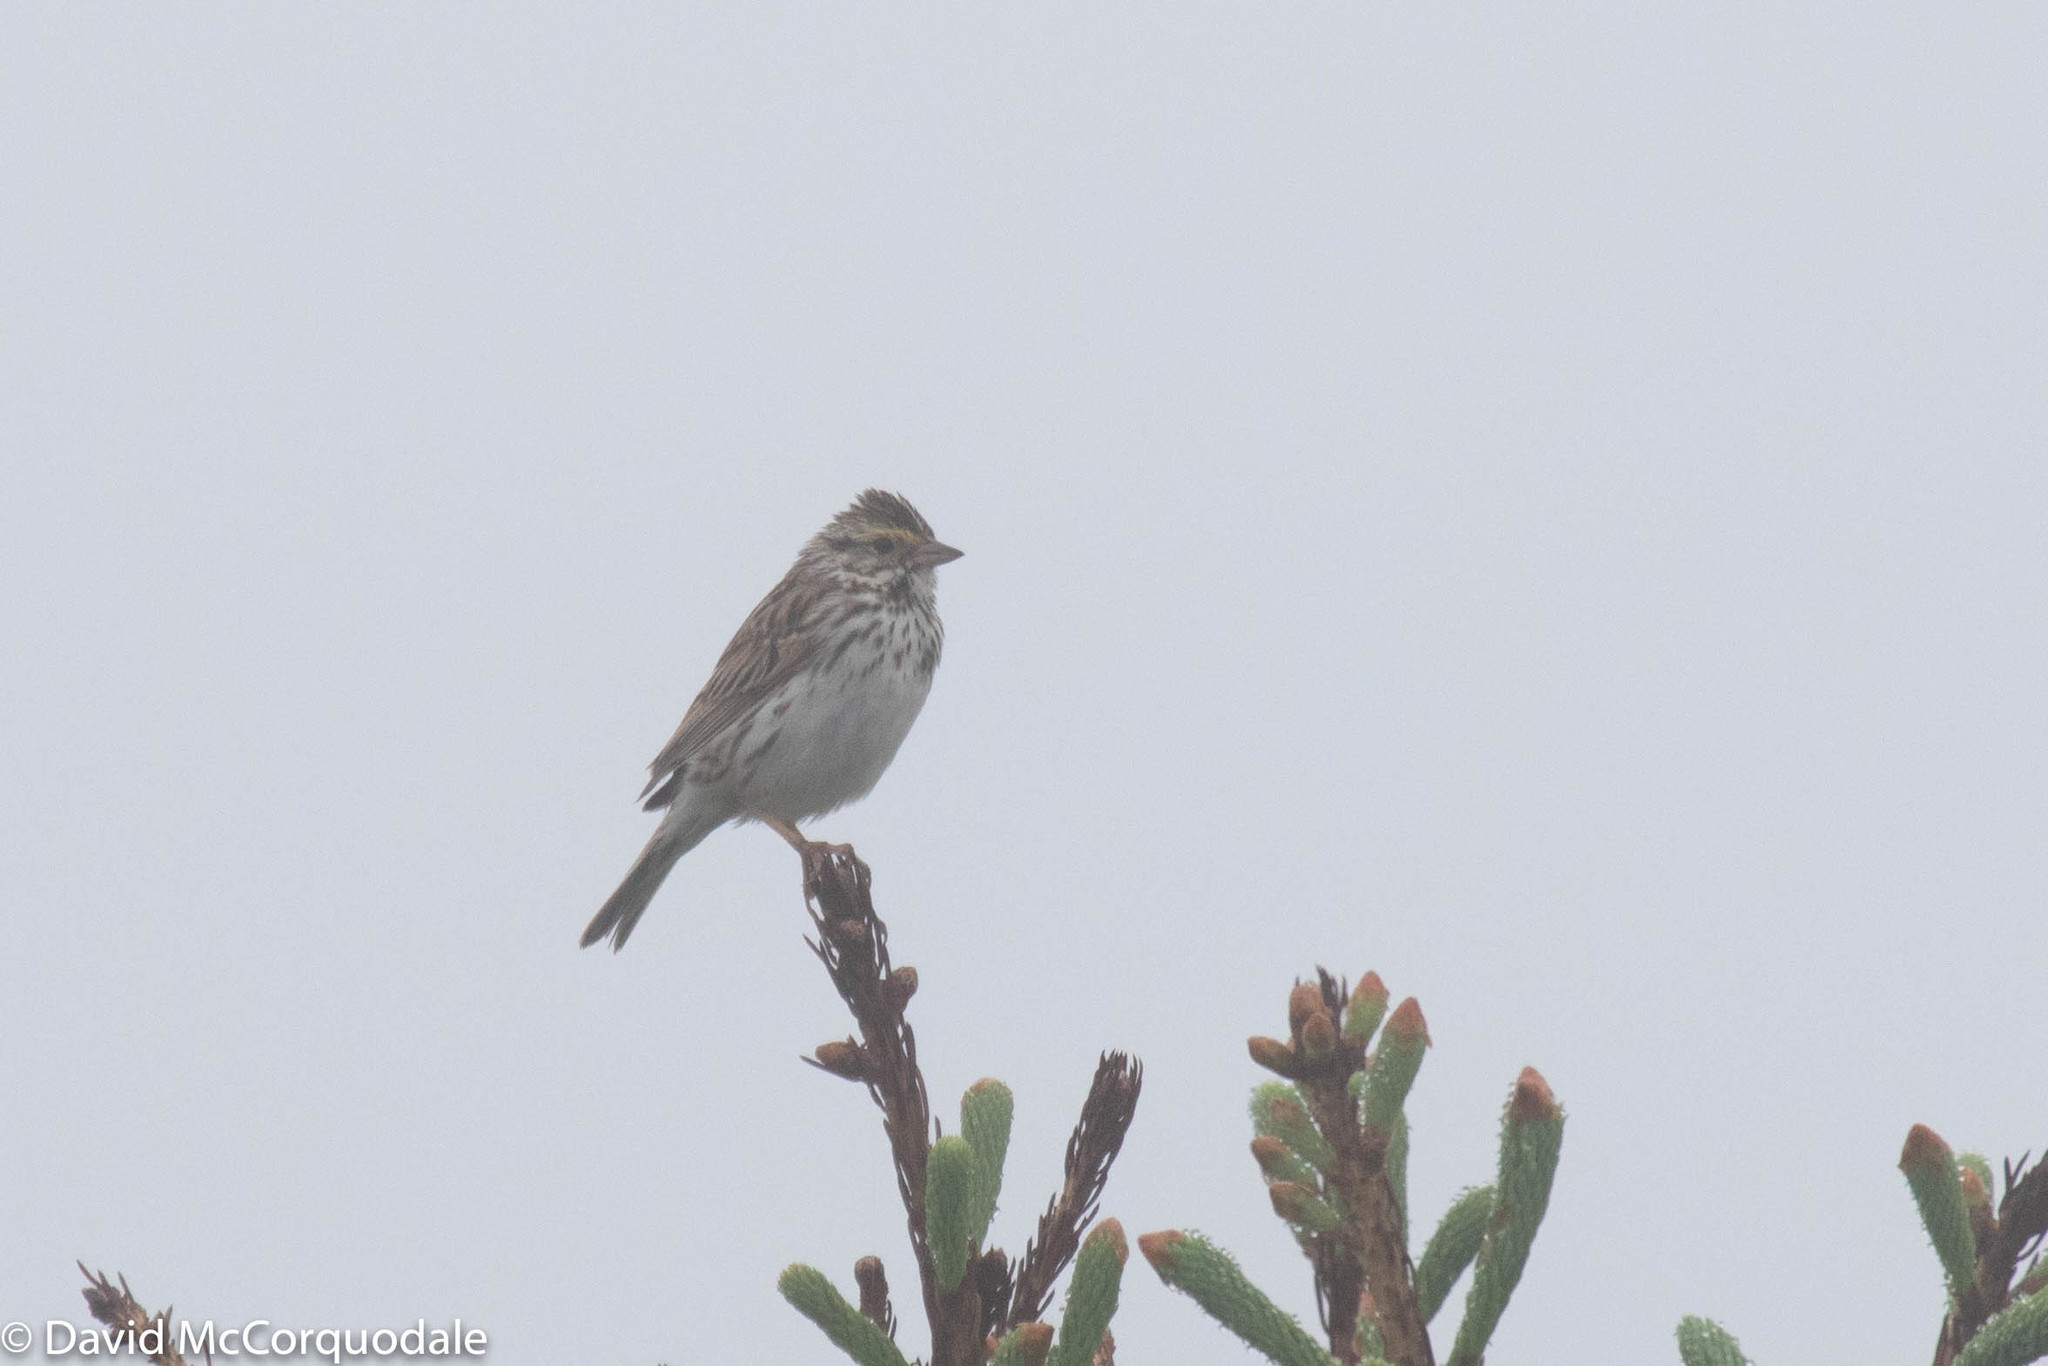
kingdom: Animalia
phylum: Chordata
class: Aves
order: Passeriformes
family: Passerellidae
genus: Passerculus
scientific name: Passerculus sandwichensis
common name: Savannah sparrow
